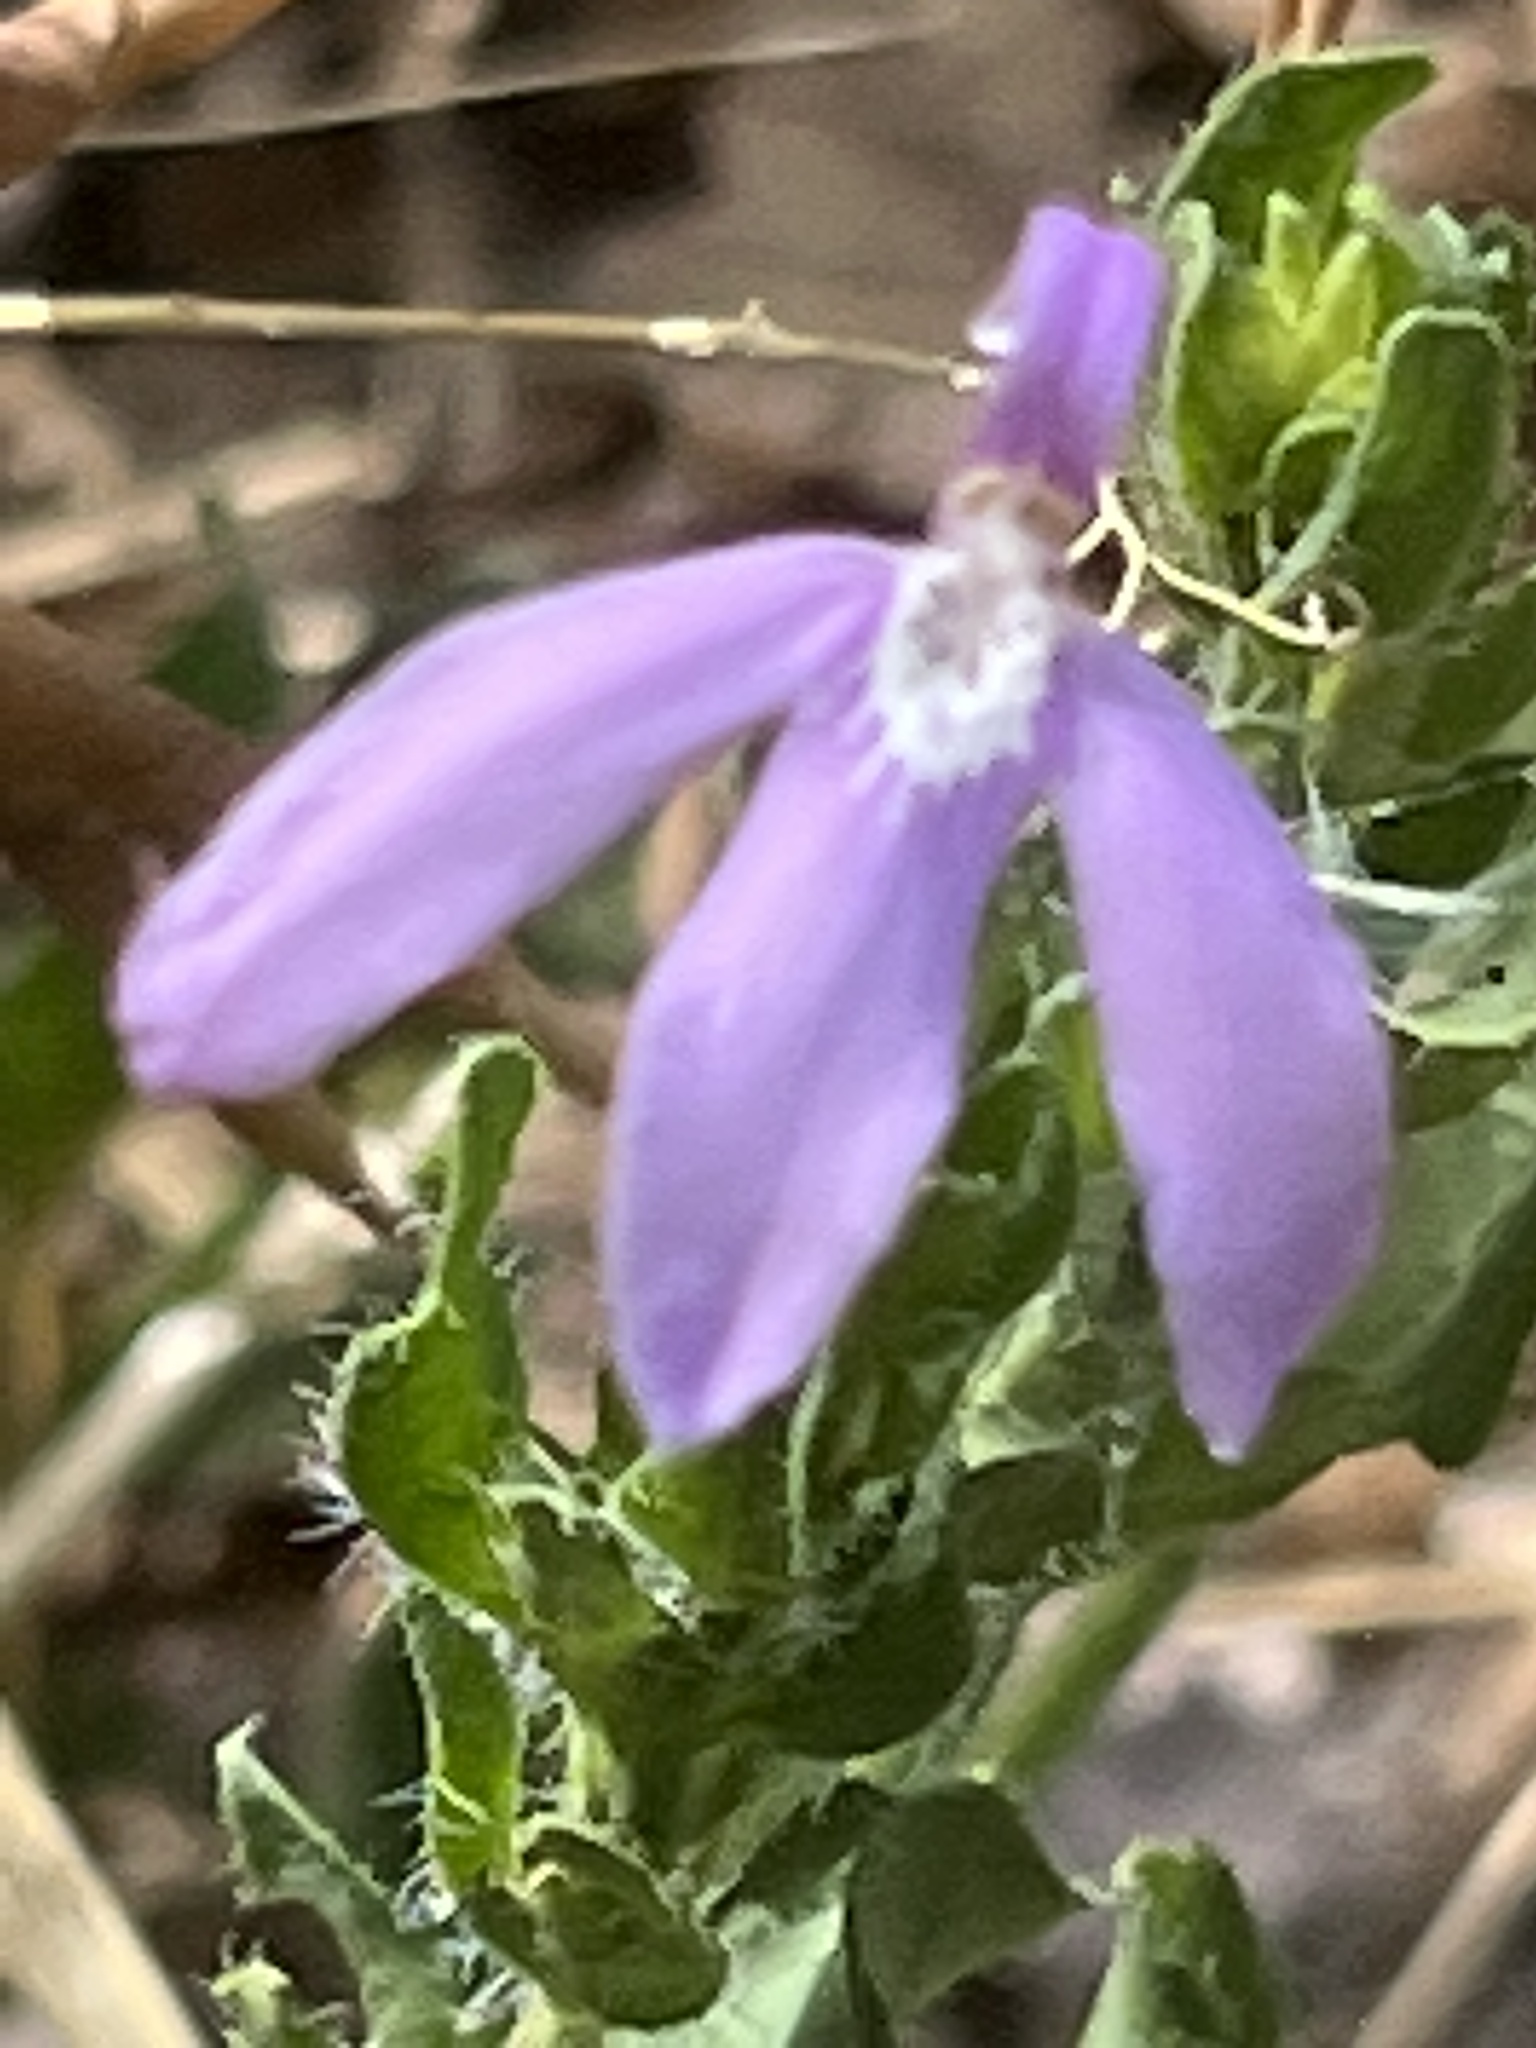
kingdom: Plantae
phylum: Tracheophyta
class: Magnoliopsida
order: Lamiales
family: Acanthaceae
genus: Justicia
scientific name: Justicia pilosella
